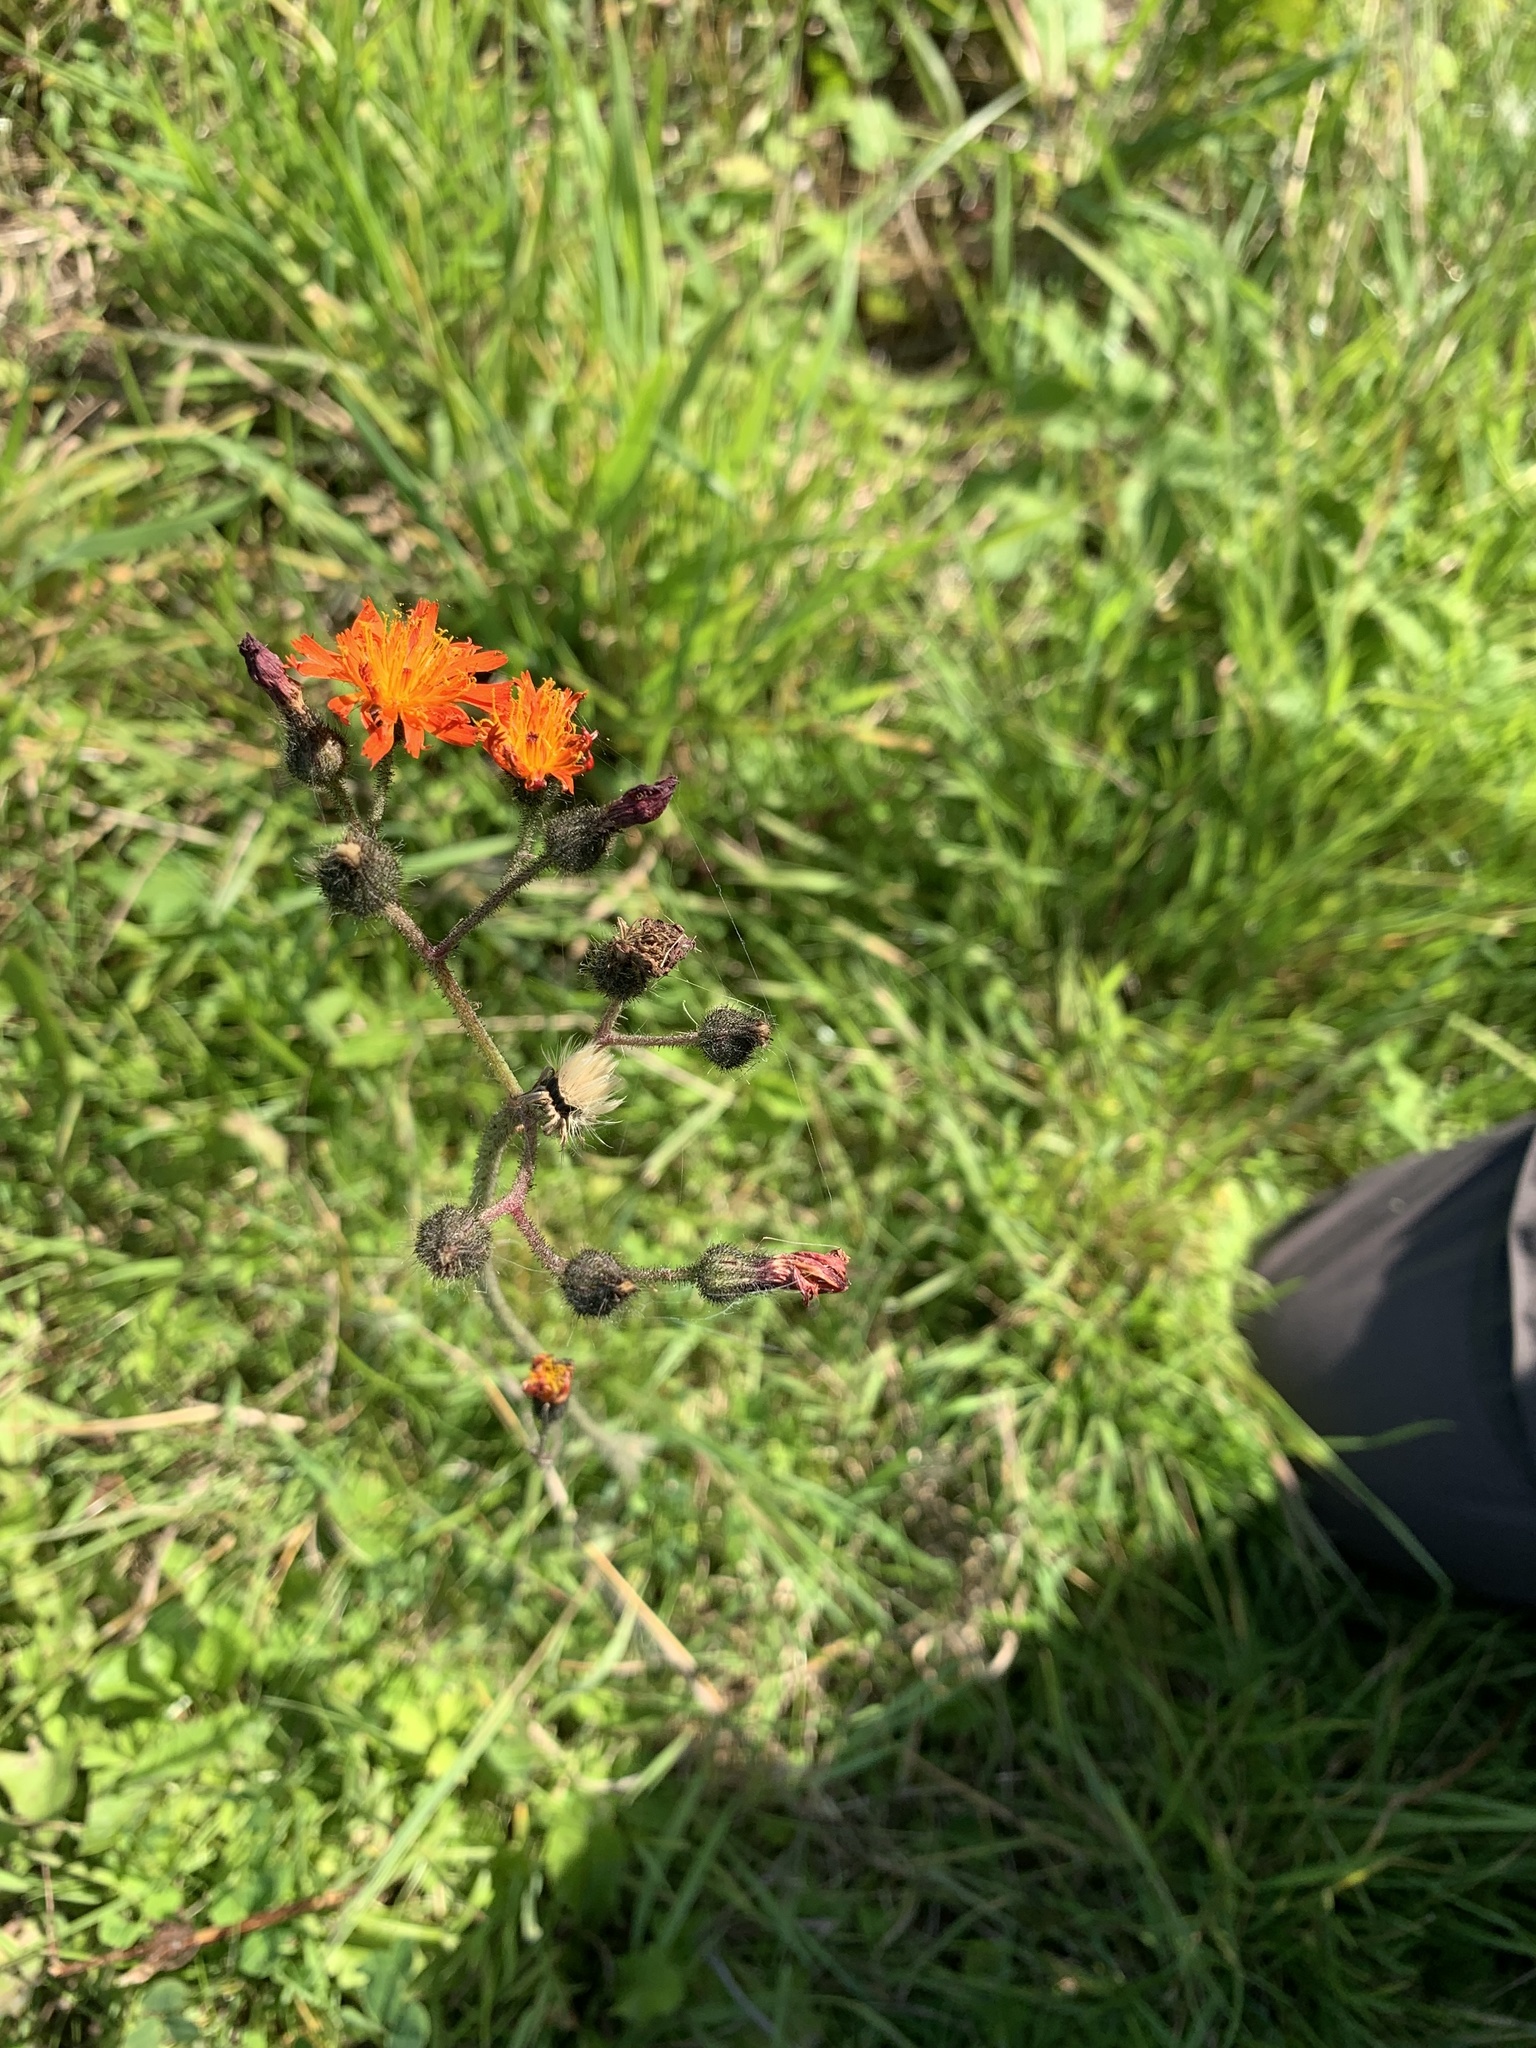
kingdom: Plantae
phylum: Tracheophyta
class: Magnoliopsida
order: Asterales
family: Asteraceae
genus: Pilosella
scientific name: Pilosella aurantiaca
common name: Fox-and-cubs
